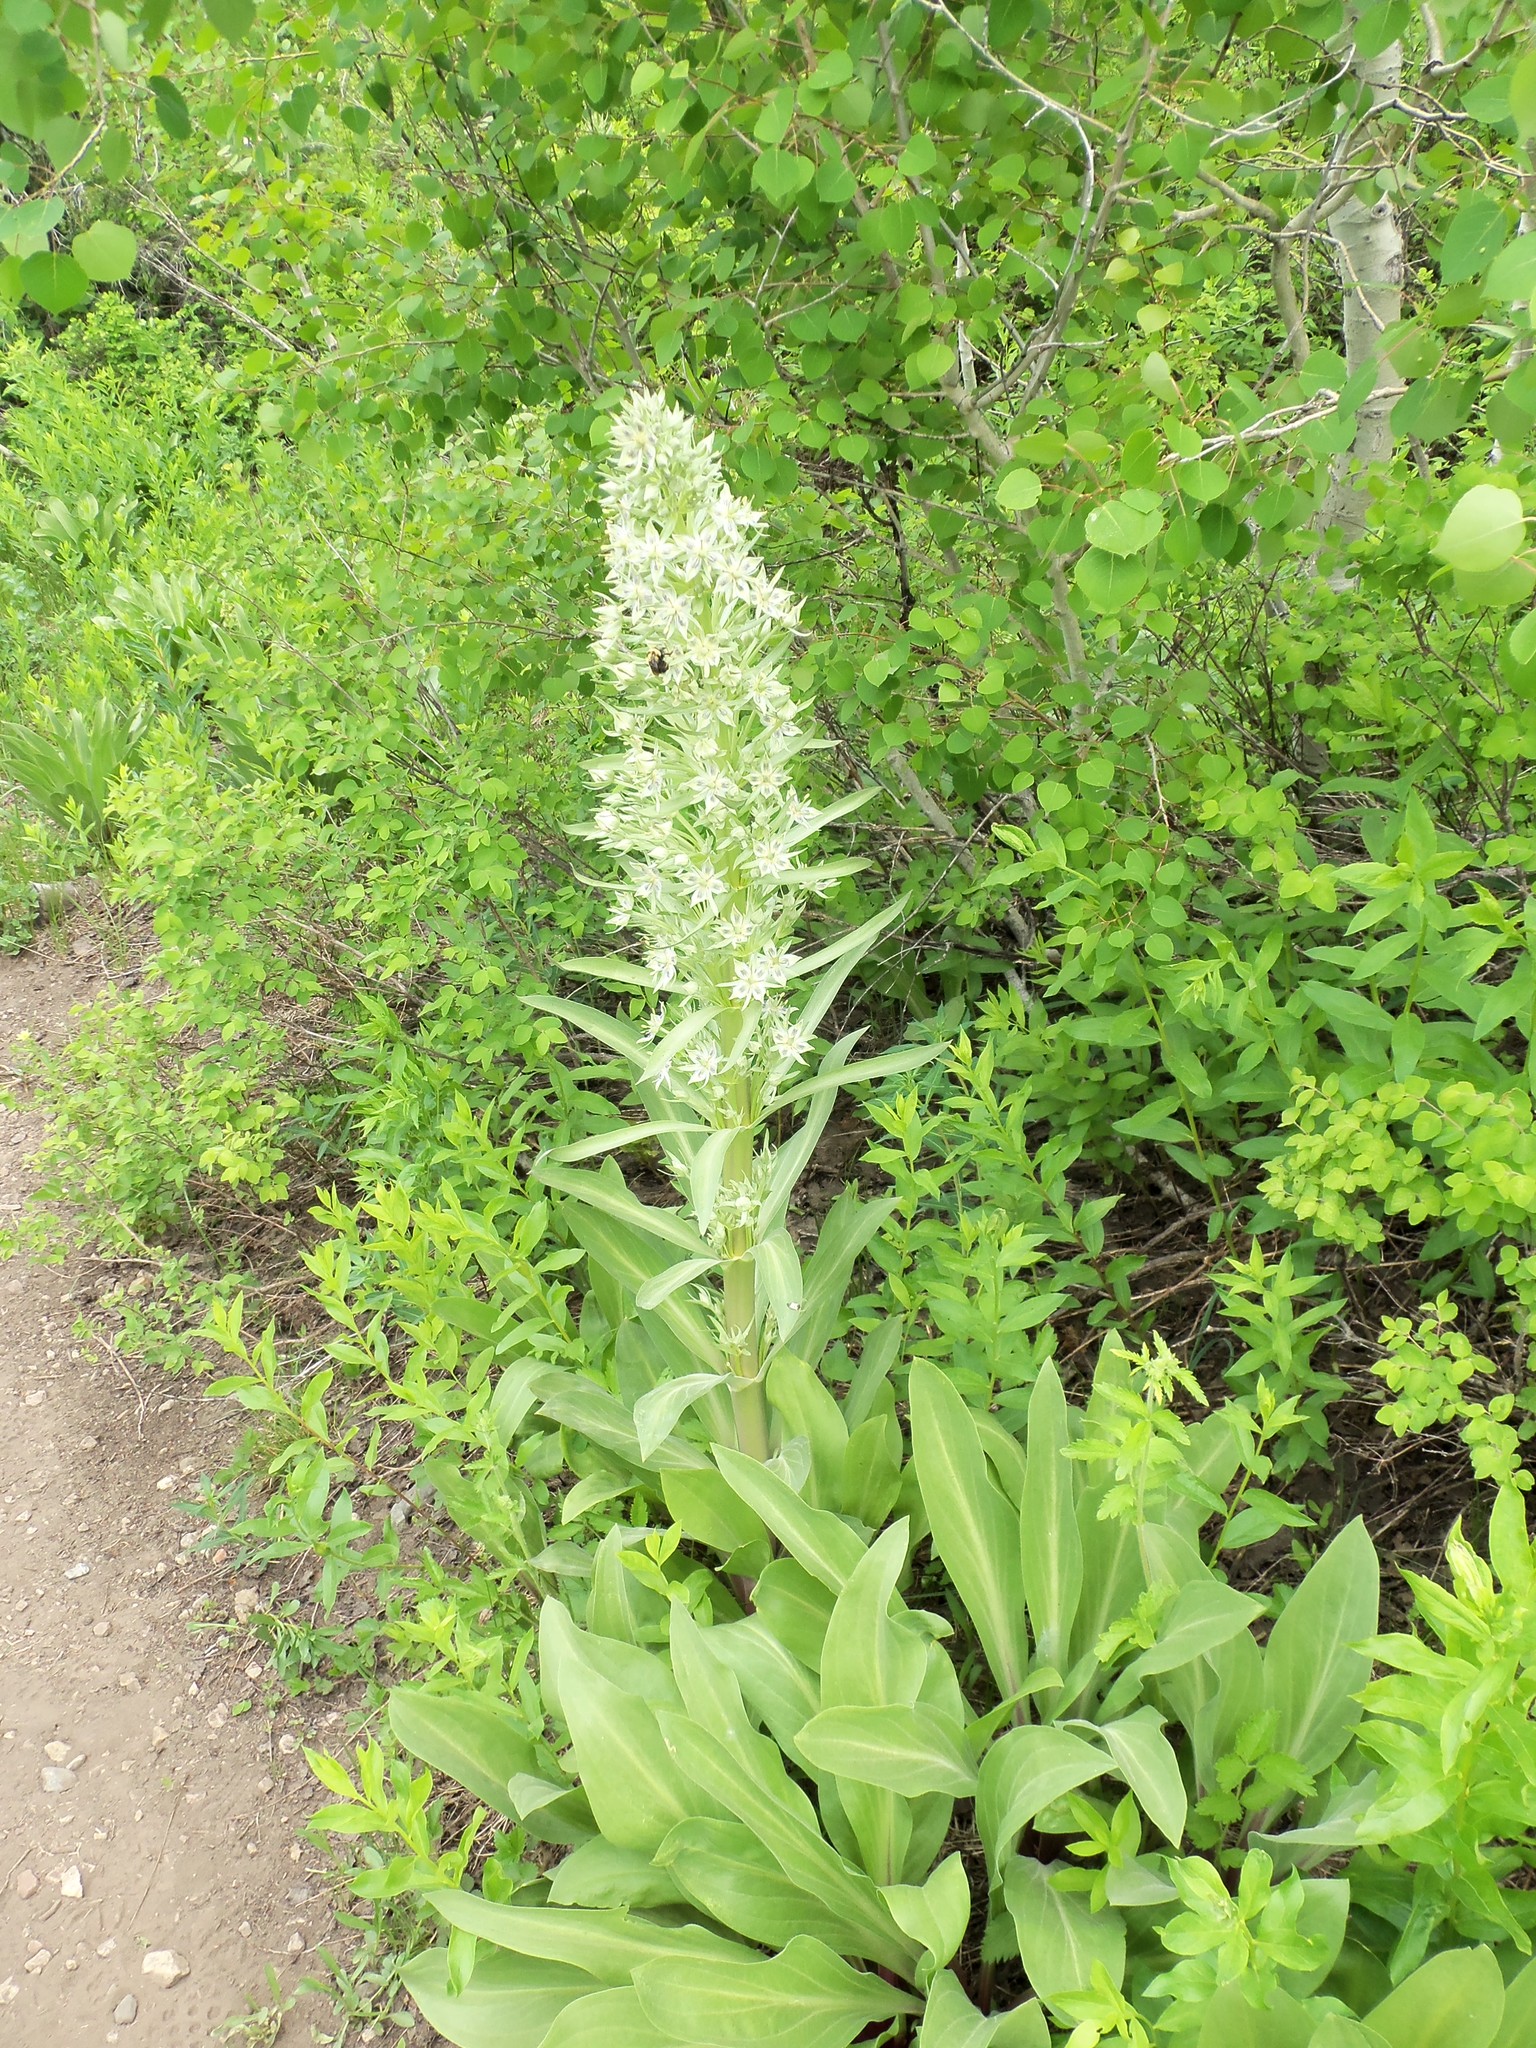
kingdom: Plantae
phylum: Tracheophyta
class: Magnoliopsida
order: Gentianales
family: Gentianaceae
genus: Frasera
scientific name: Frasera speciosa
